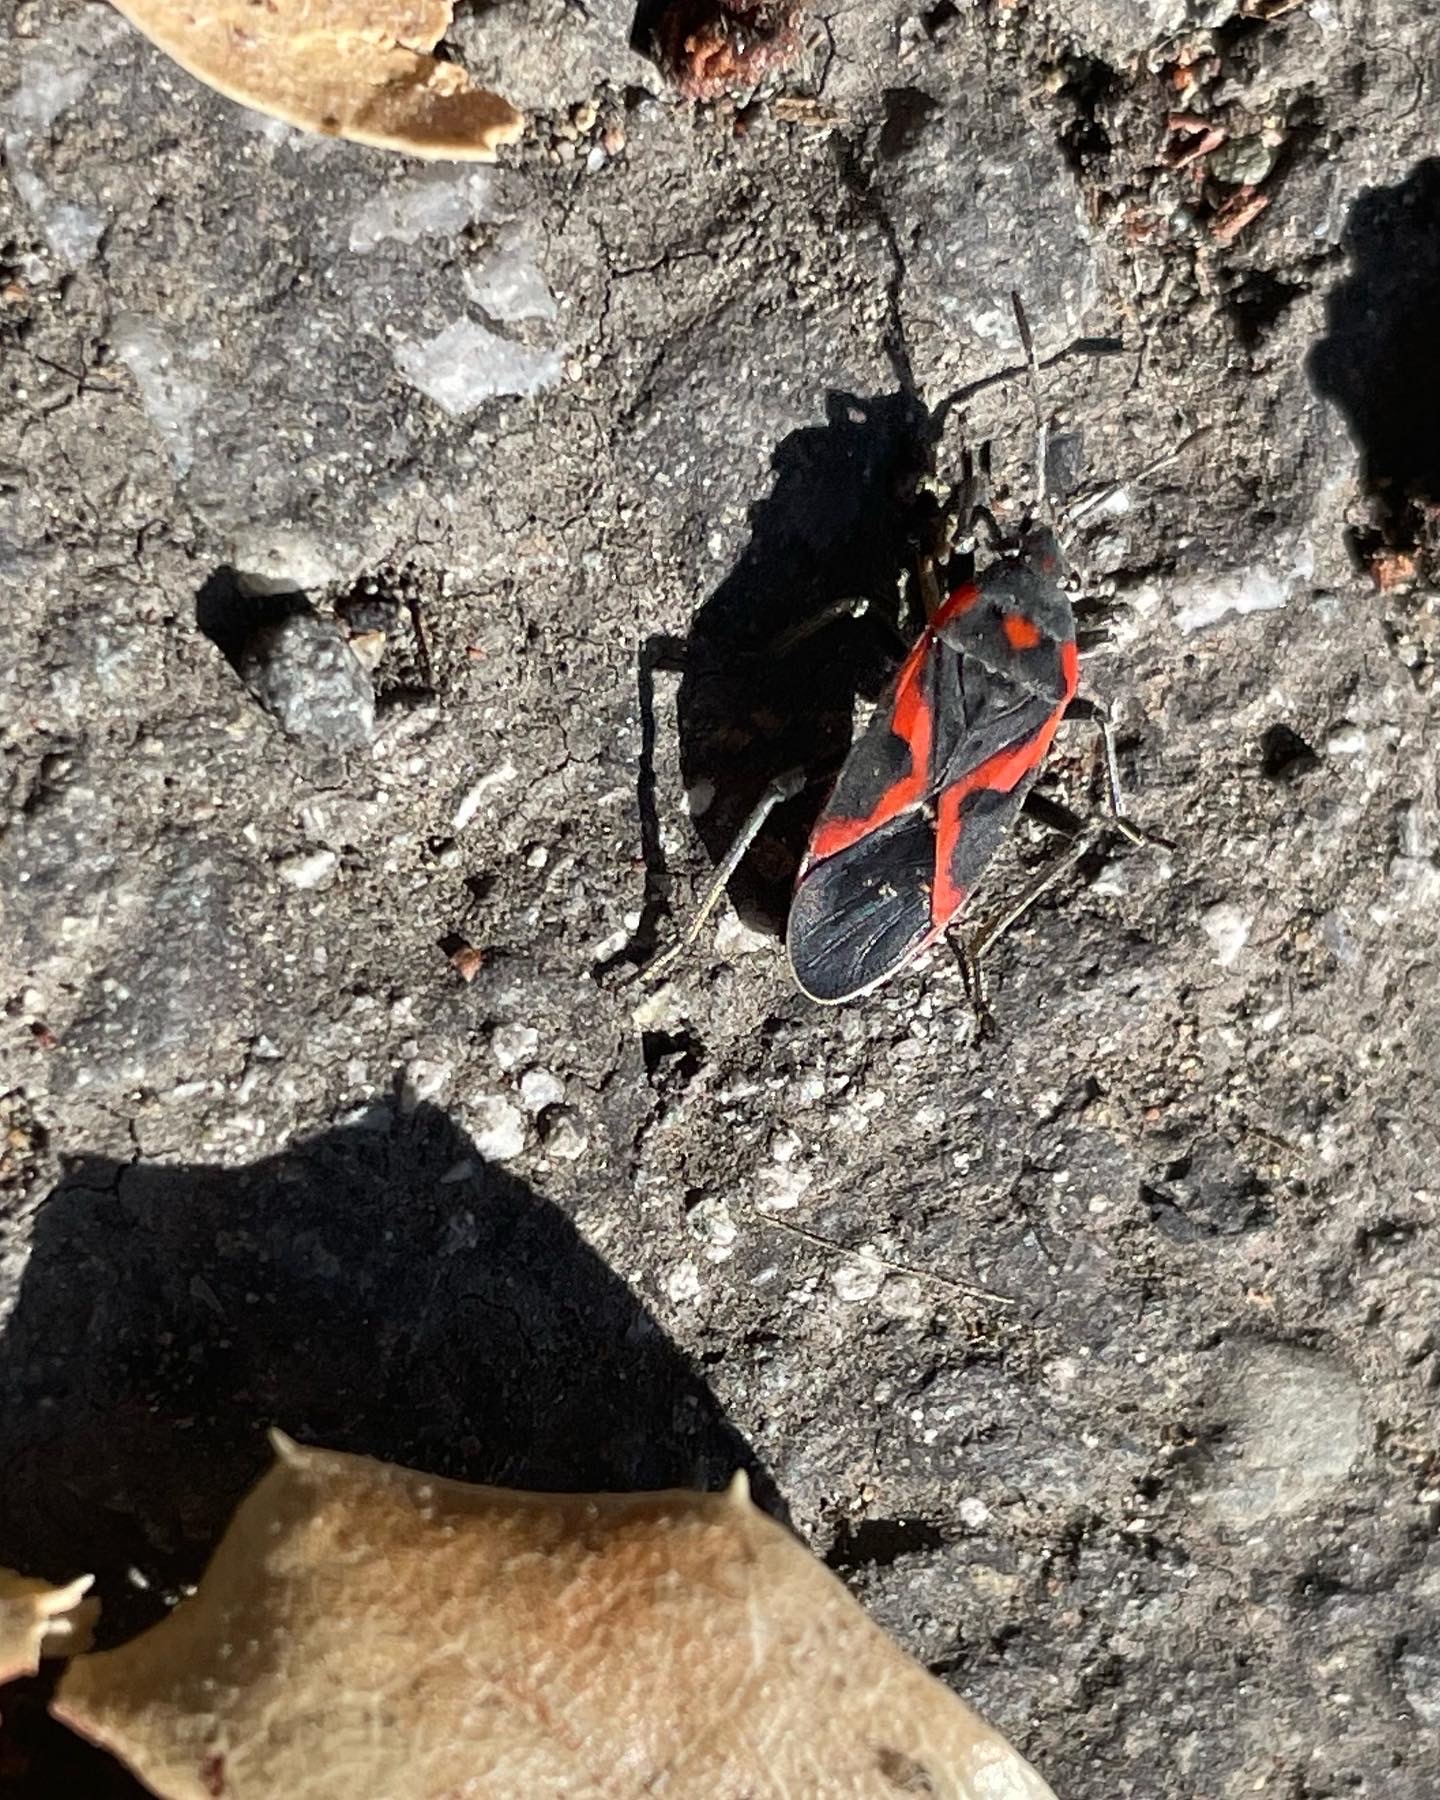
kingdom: Animalia
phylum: Arthropoda
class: Insecta
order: Hemiptera
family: Lygaeidae
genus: Lygaeus
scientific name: Lygaeus kalmii
